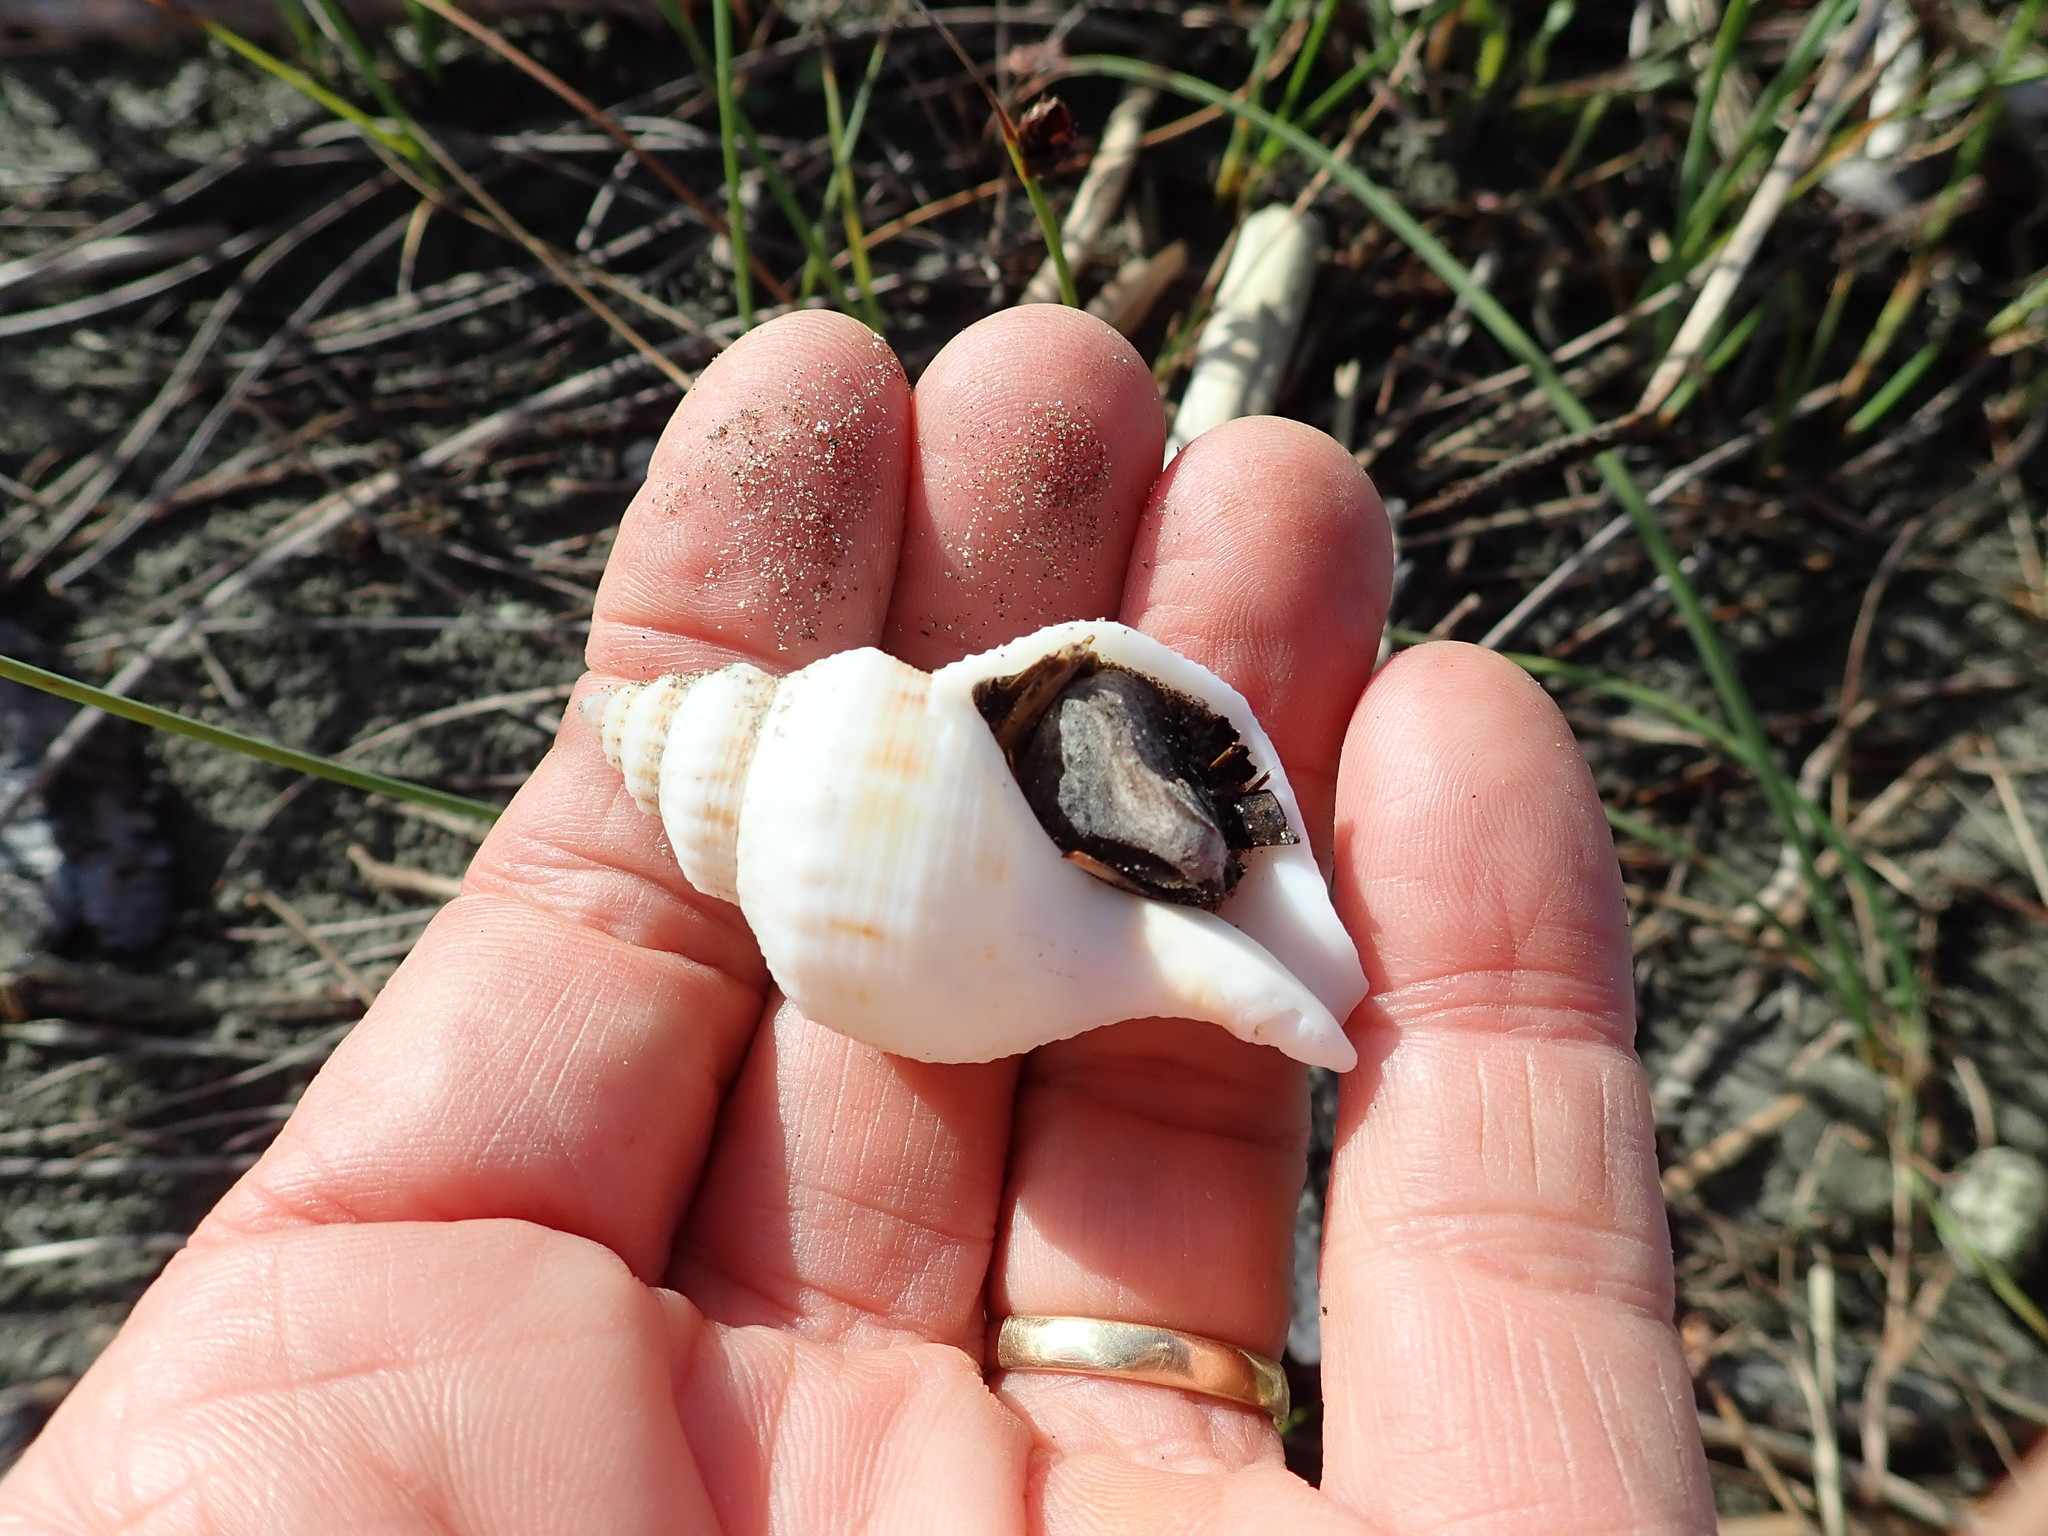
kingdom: Animalia
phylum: Mollusca
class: Gastropoda
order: Neogastropoda
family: Prosiphonidae
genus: Austrofusus
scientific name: Austrofusus glans
